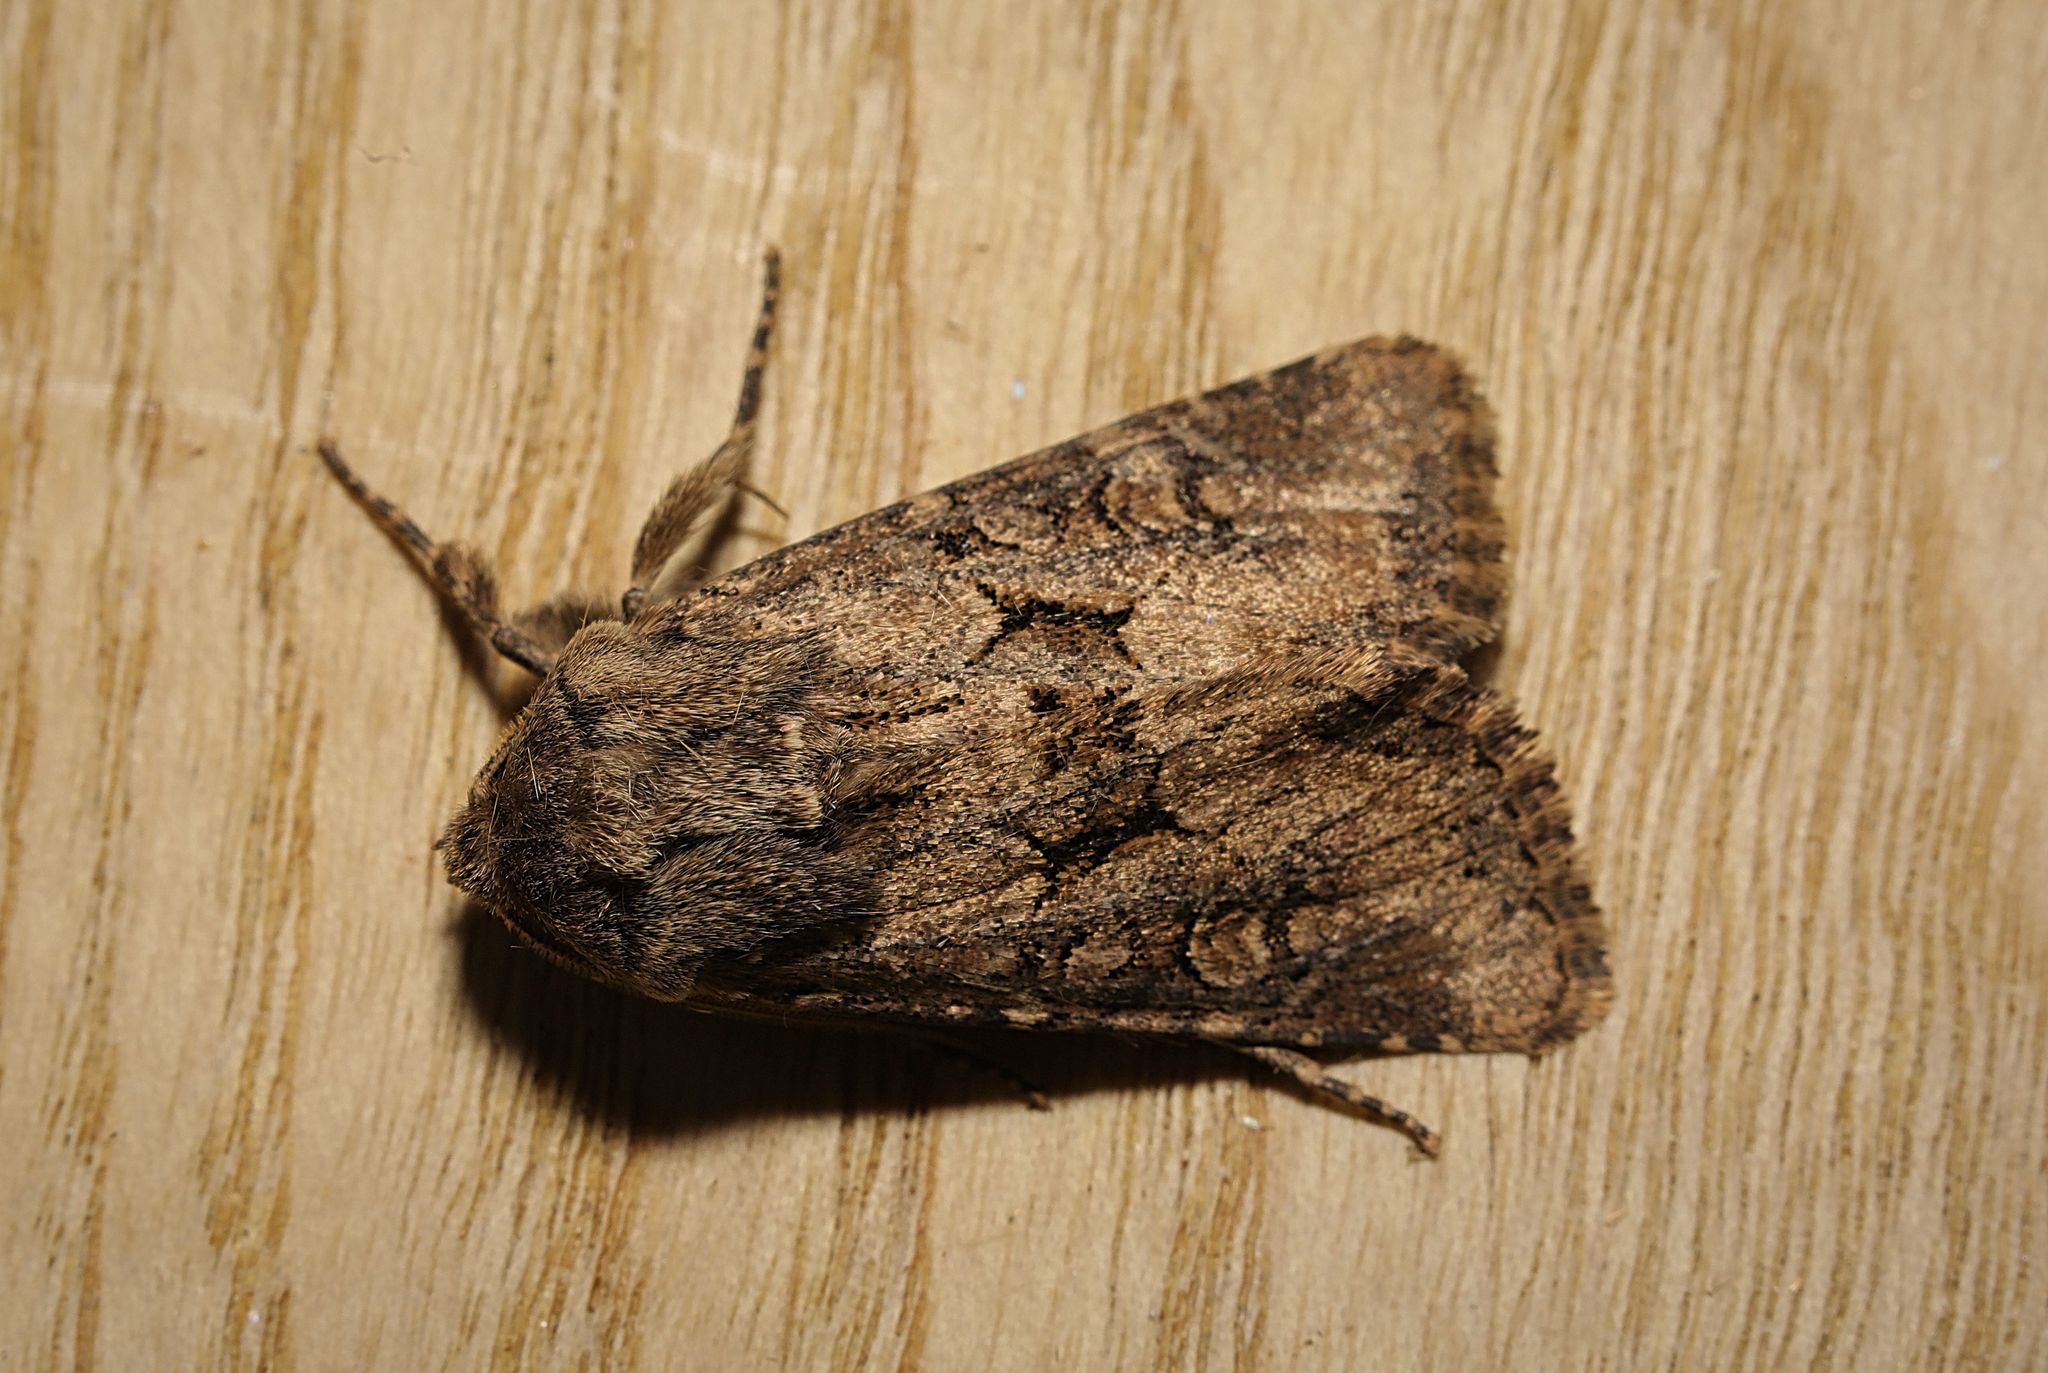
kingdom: Animalia
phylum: Arthropoda
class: Insecta
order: Lepidoptera
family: Noctuidae
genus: Luperina
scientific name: Luperina testacea
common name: Flounced rustic
